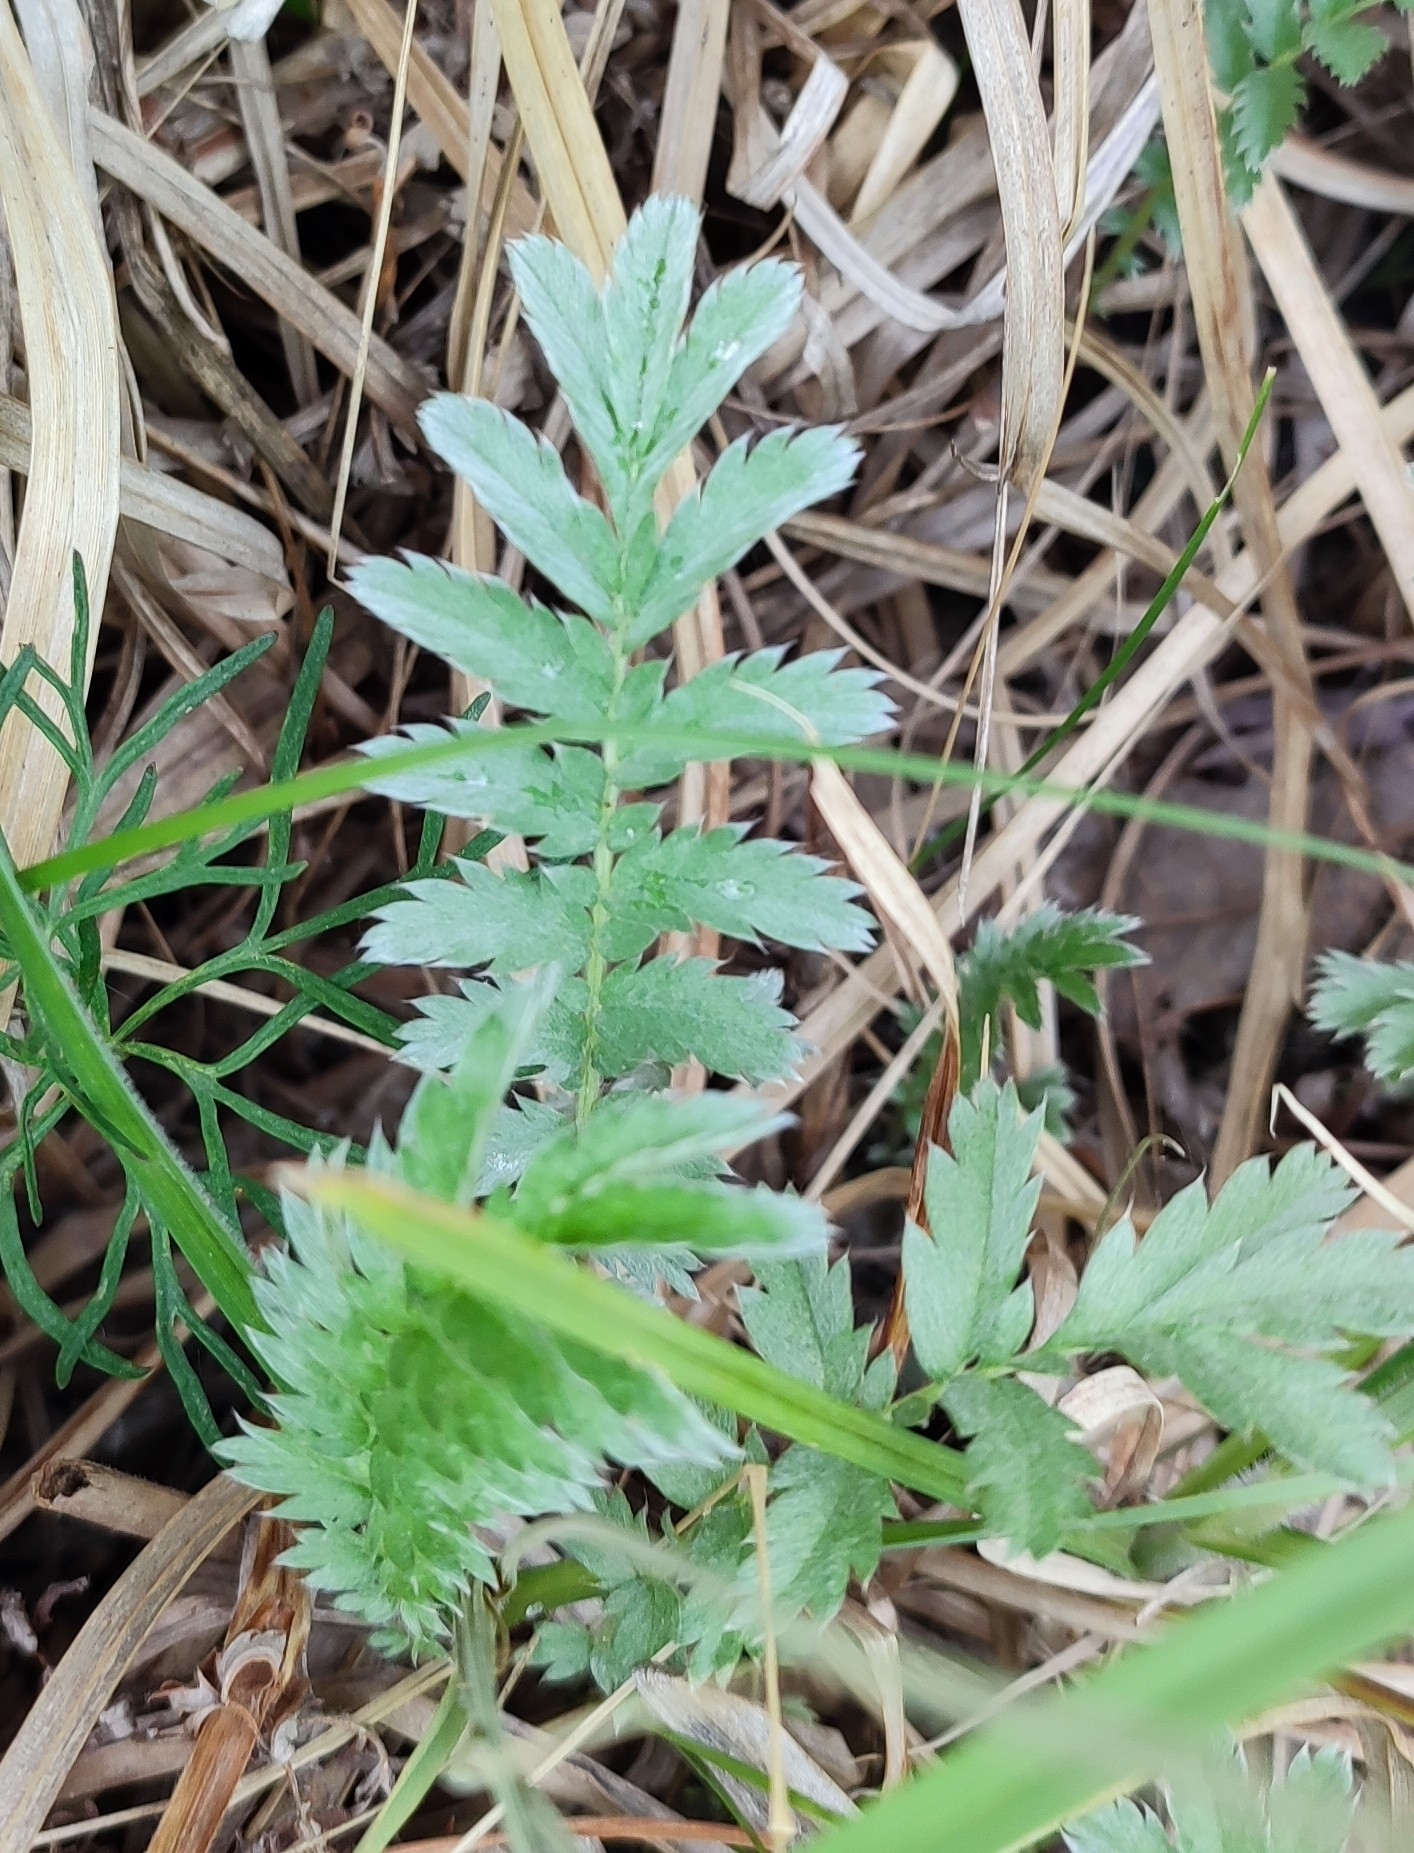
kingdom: Plantae
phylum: Tracheophyta
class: Magnoliopsida
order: Rosales
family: Rosaceae
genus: Argentina
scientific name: Argentina anserina
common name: Common silverweed
